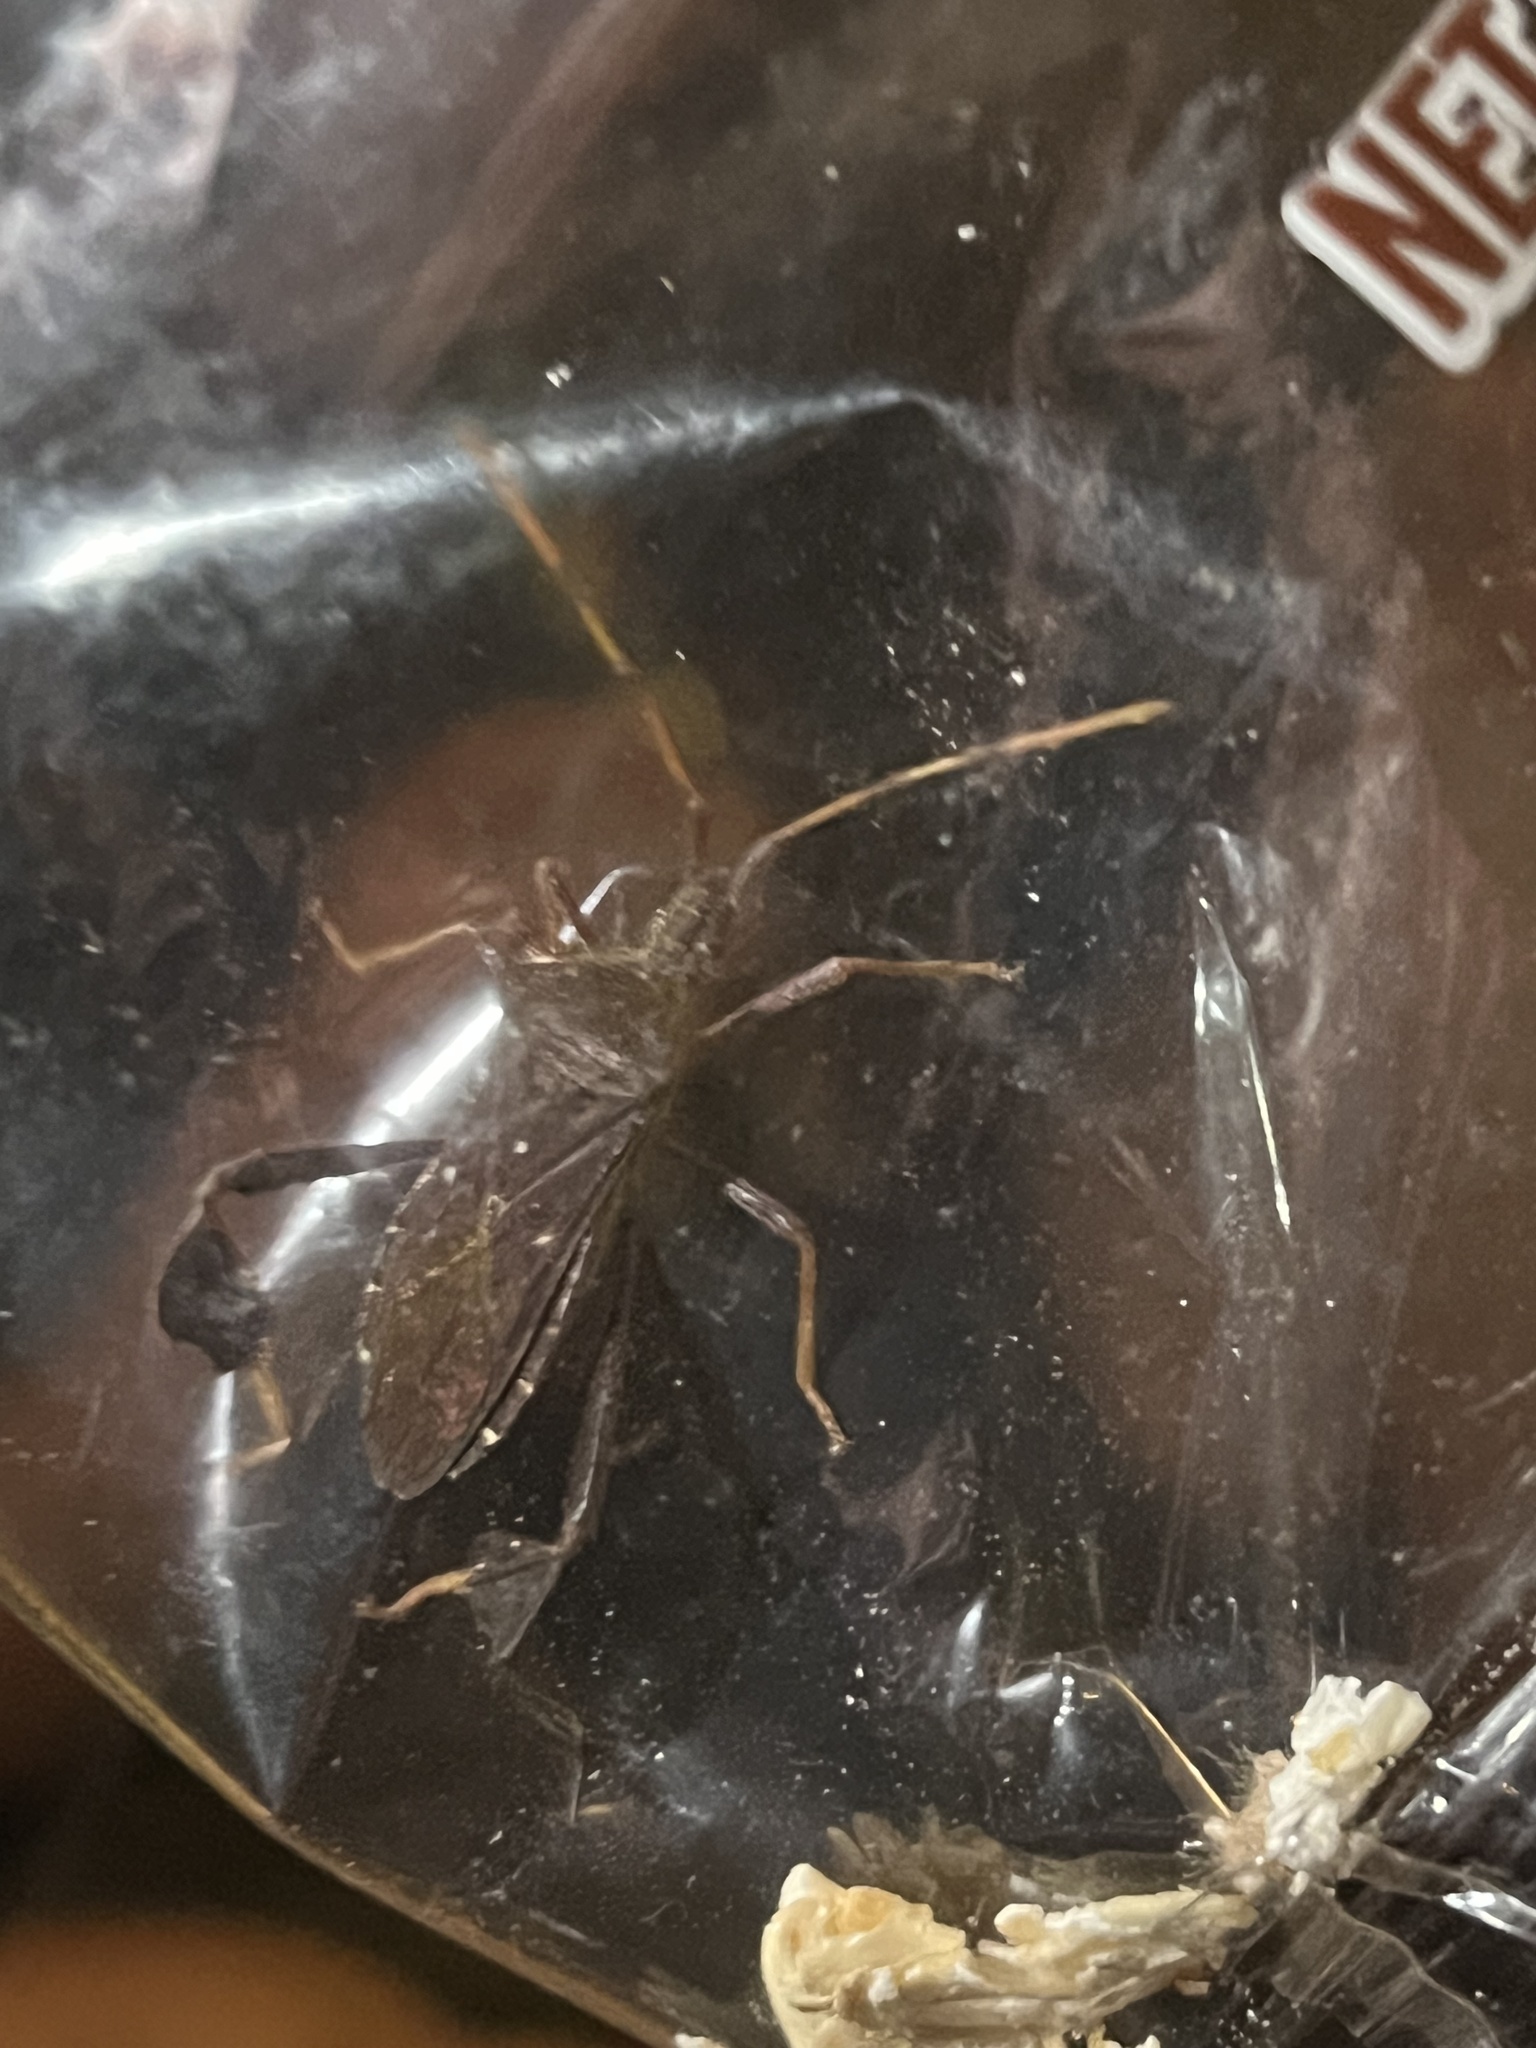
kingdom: Animalia
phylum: Arthropoda
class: Insecta
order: Hemiptera
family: Coreidae
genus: Leptoglossus
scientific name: Leptoglossus oppositus
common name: Northern leaf-footed bug
